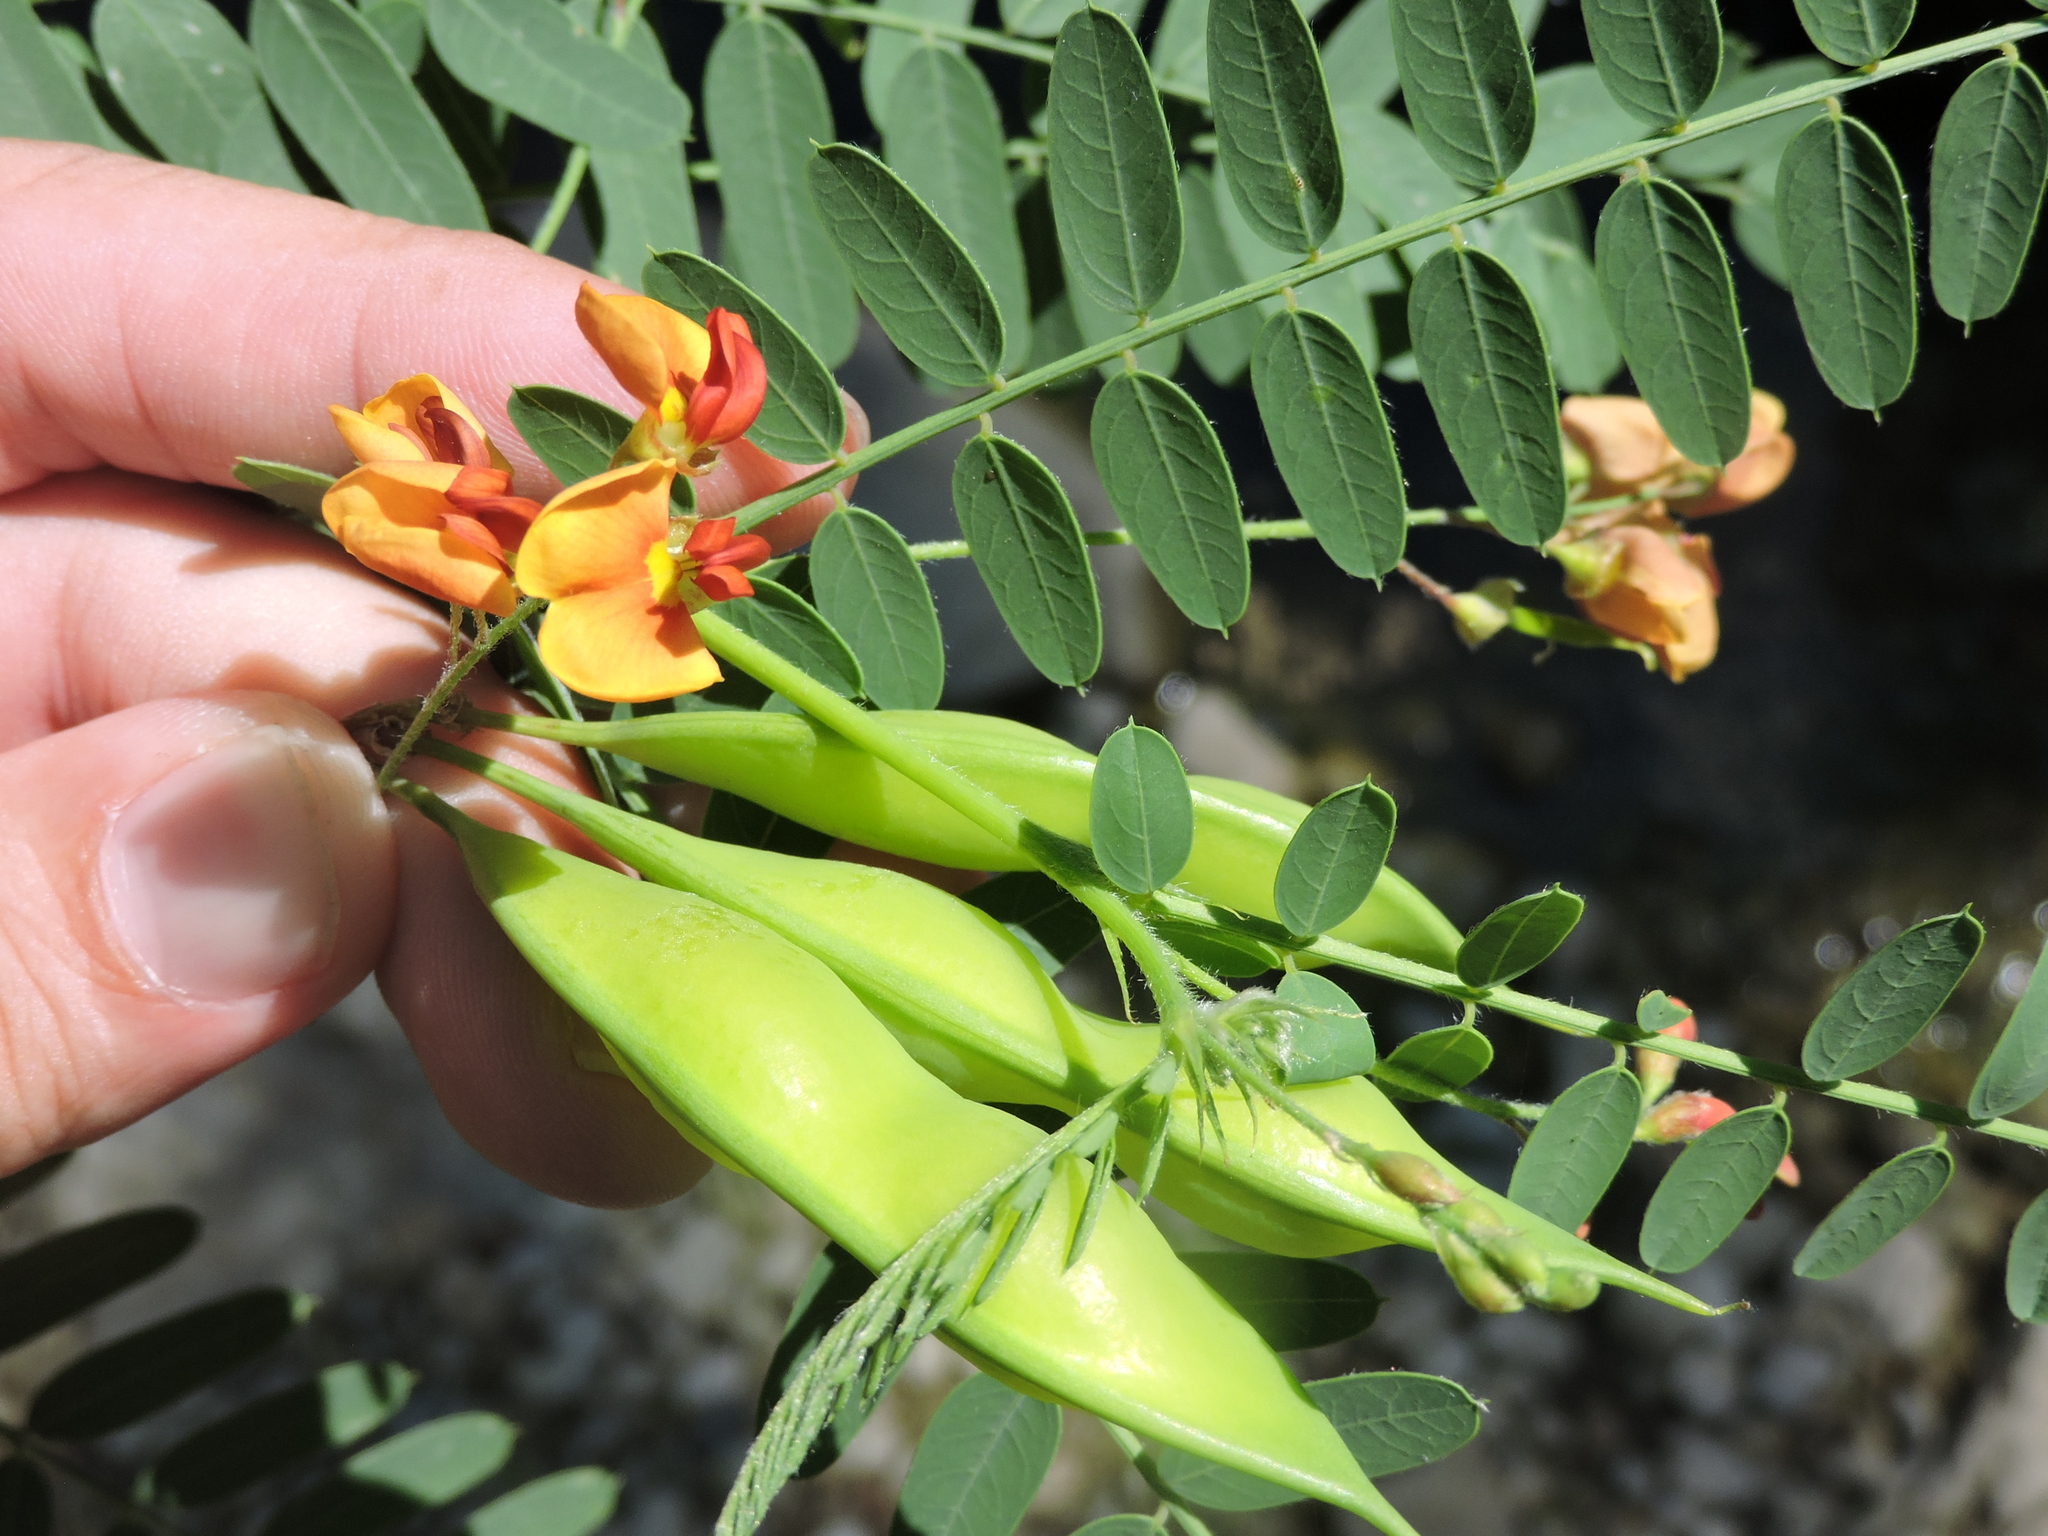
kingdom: Plantae
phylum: Tracheophyta
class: Magnoliopsida
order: Fabales
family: Fabaceae
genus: Sesbania
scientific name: Sesbania vesicaria
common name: Bagpod
